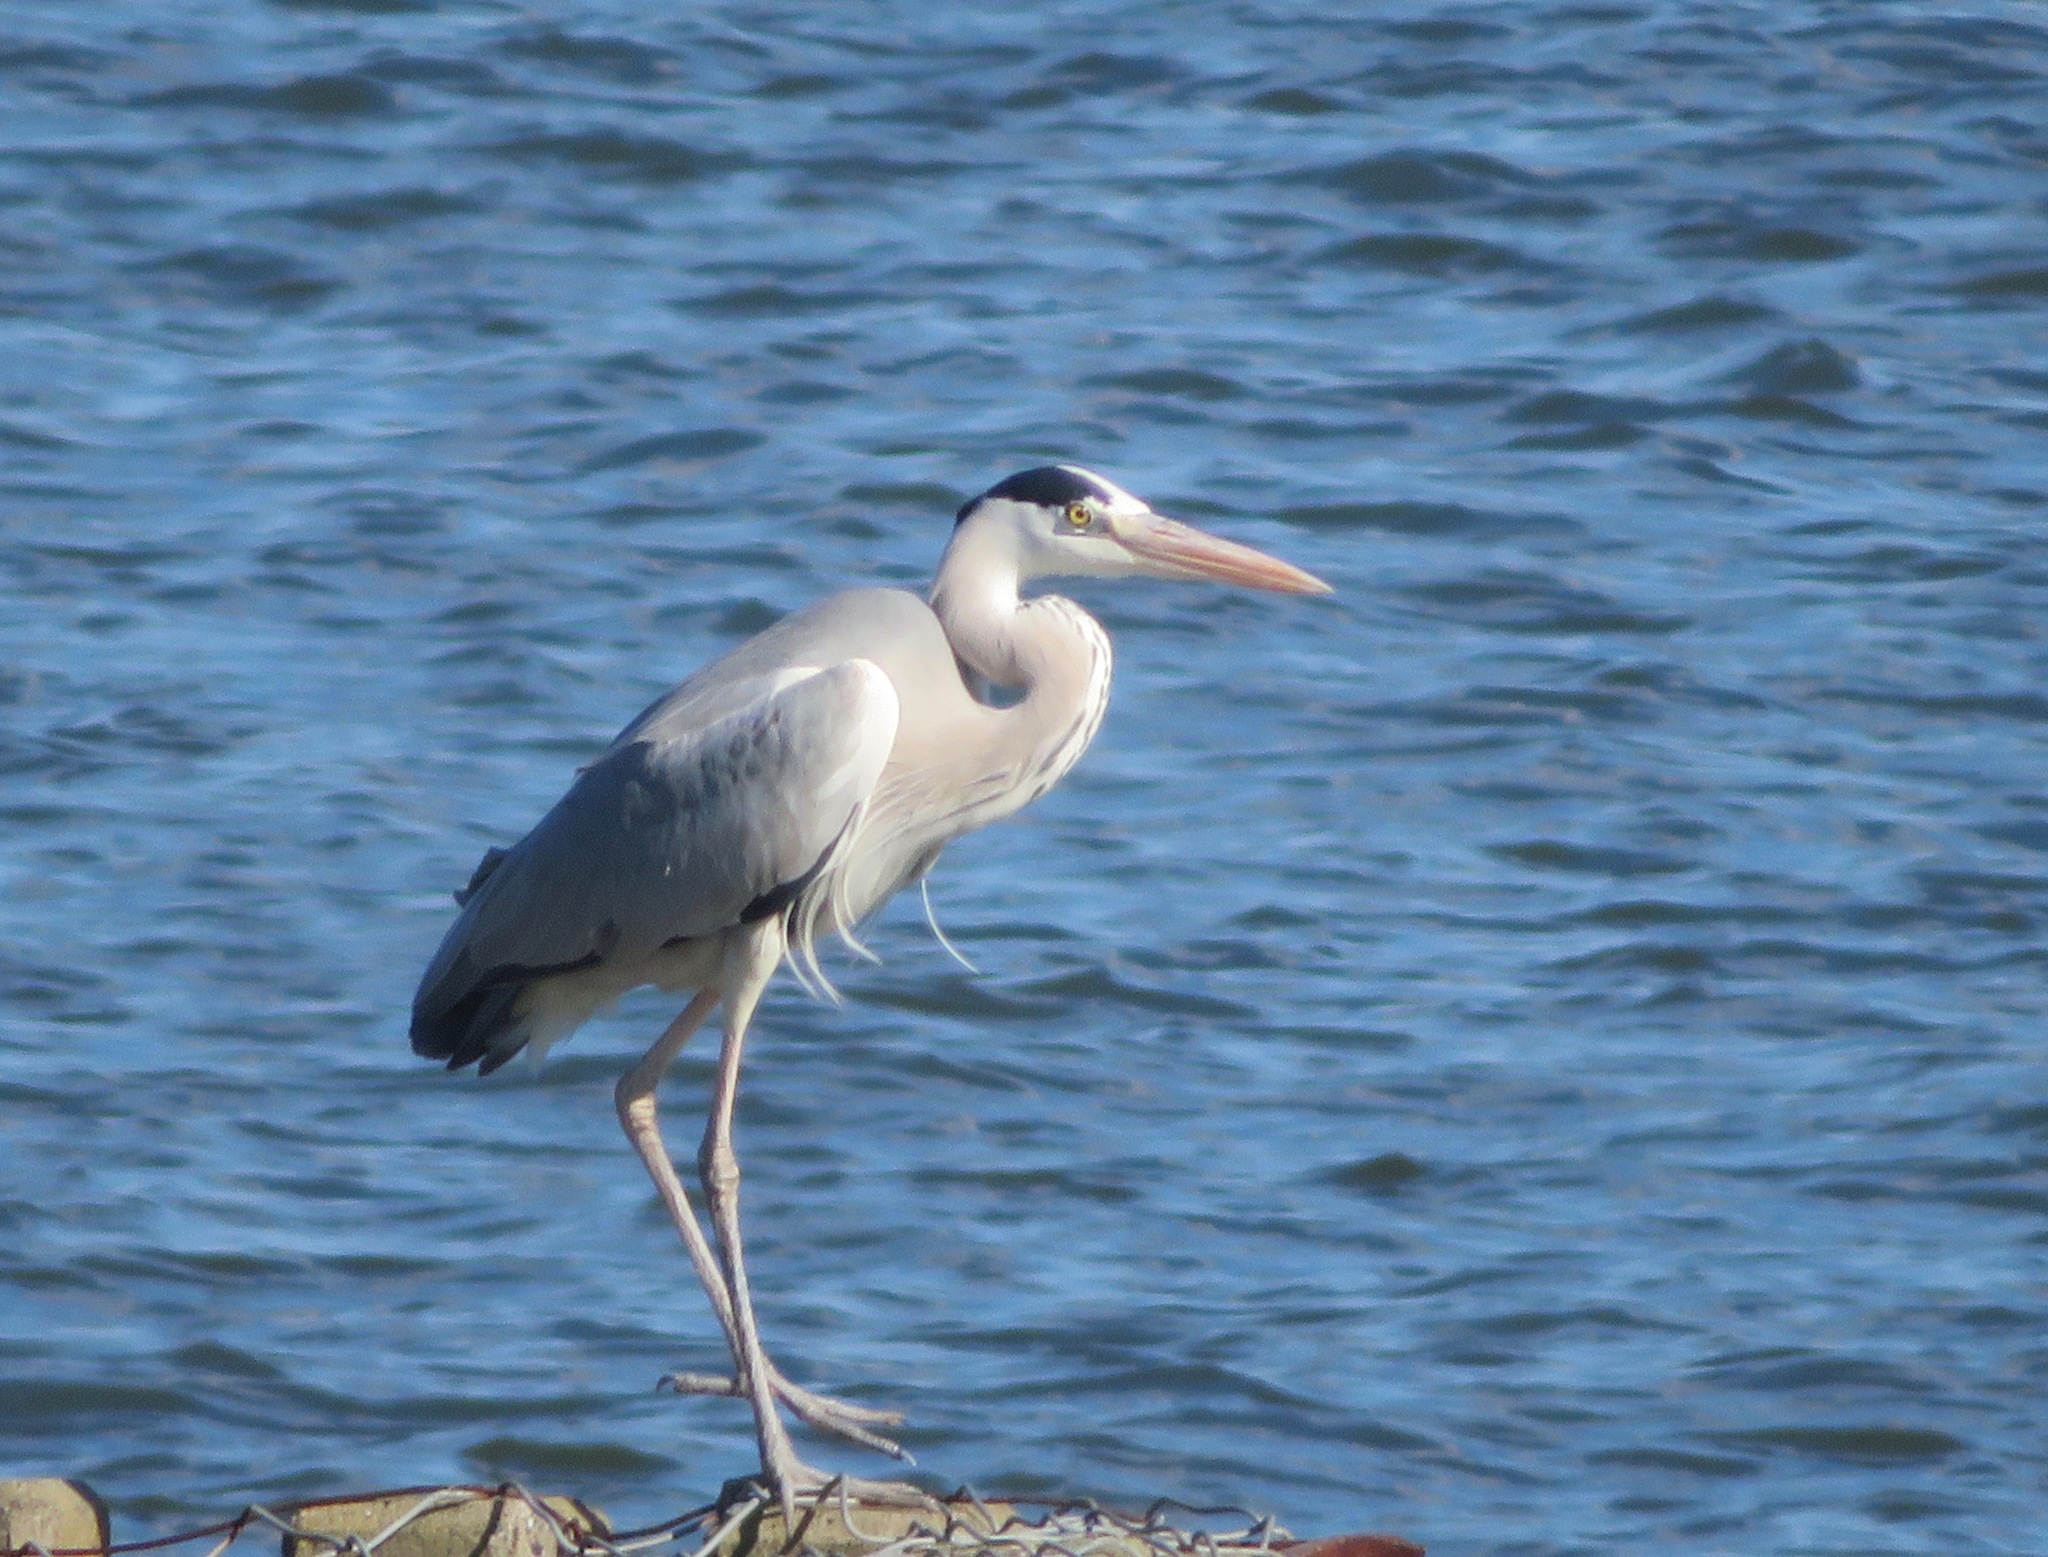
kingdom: Animalia
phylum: Chordata
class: Aves
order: Pelecaniformes
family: Ardeidae
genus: Ardea
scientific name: Ardea cinerea
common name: Grey heron
